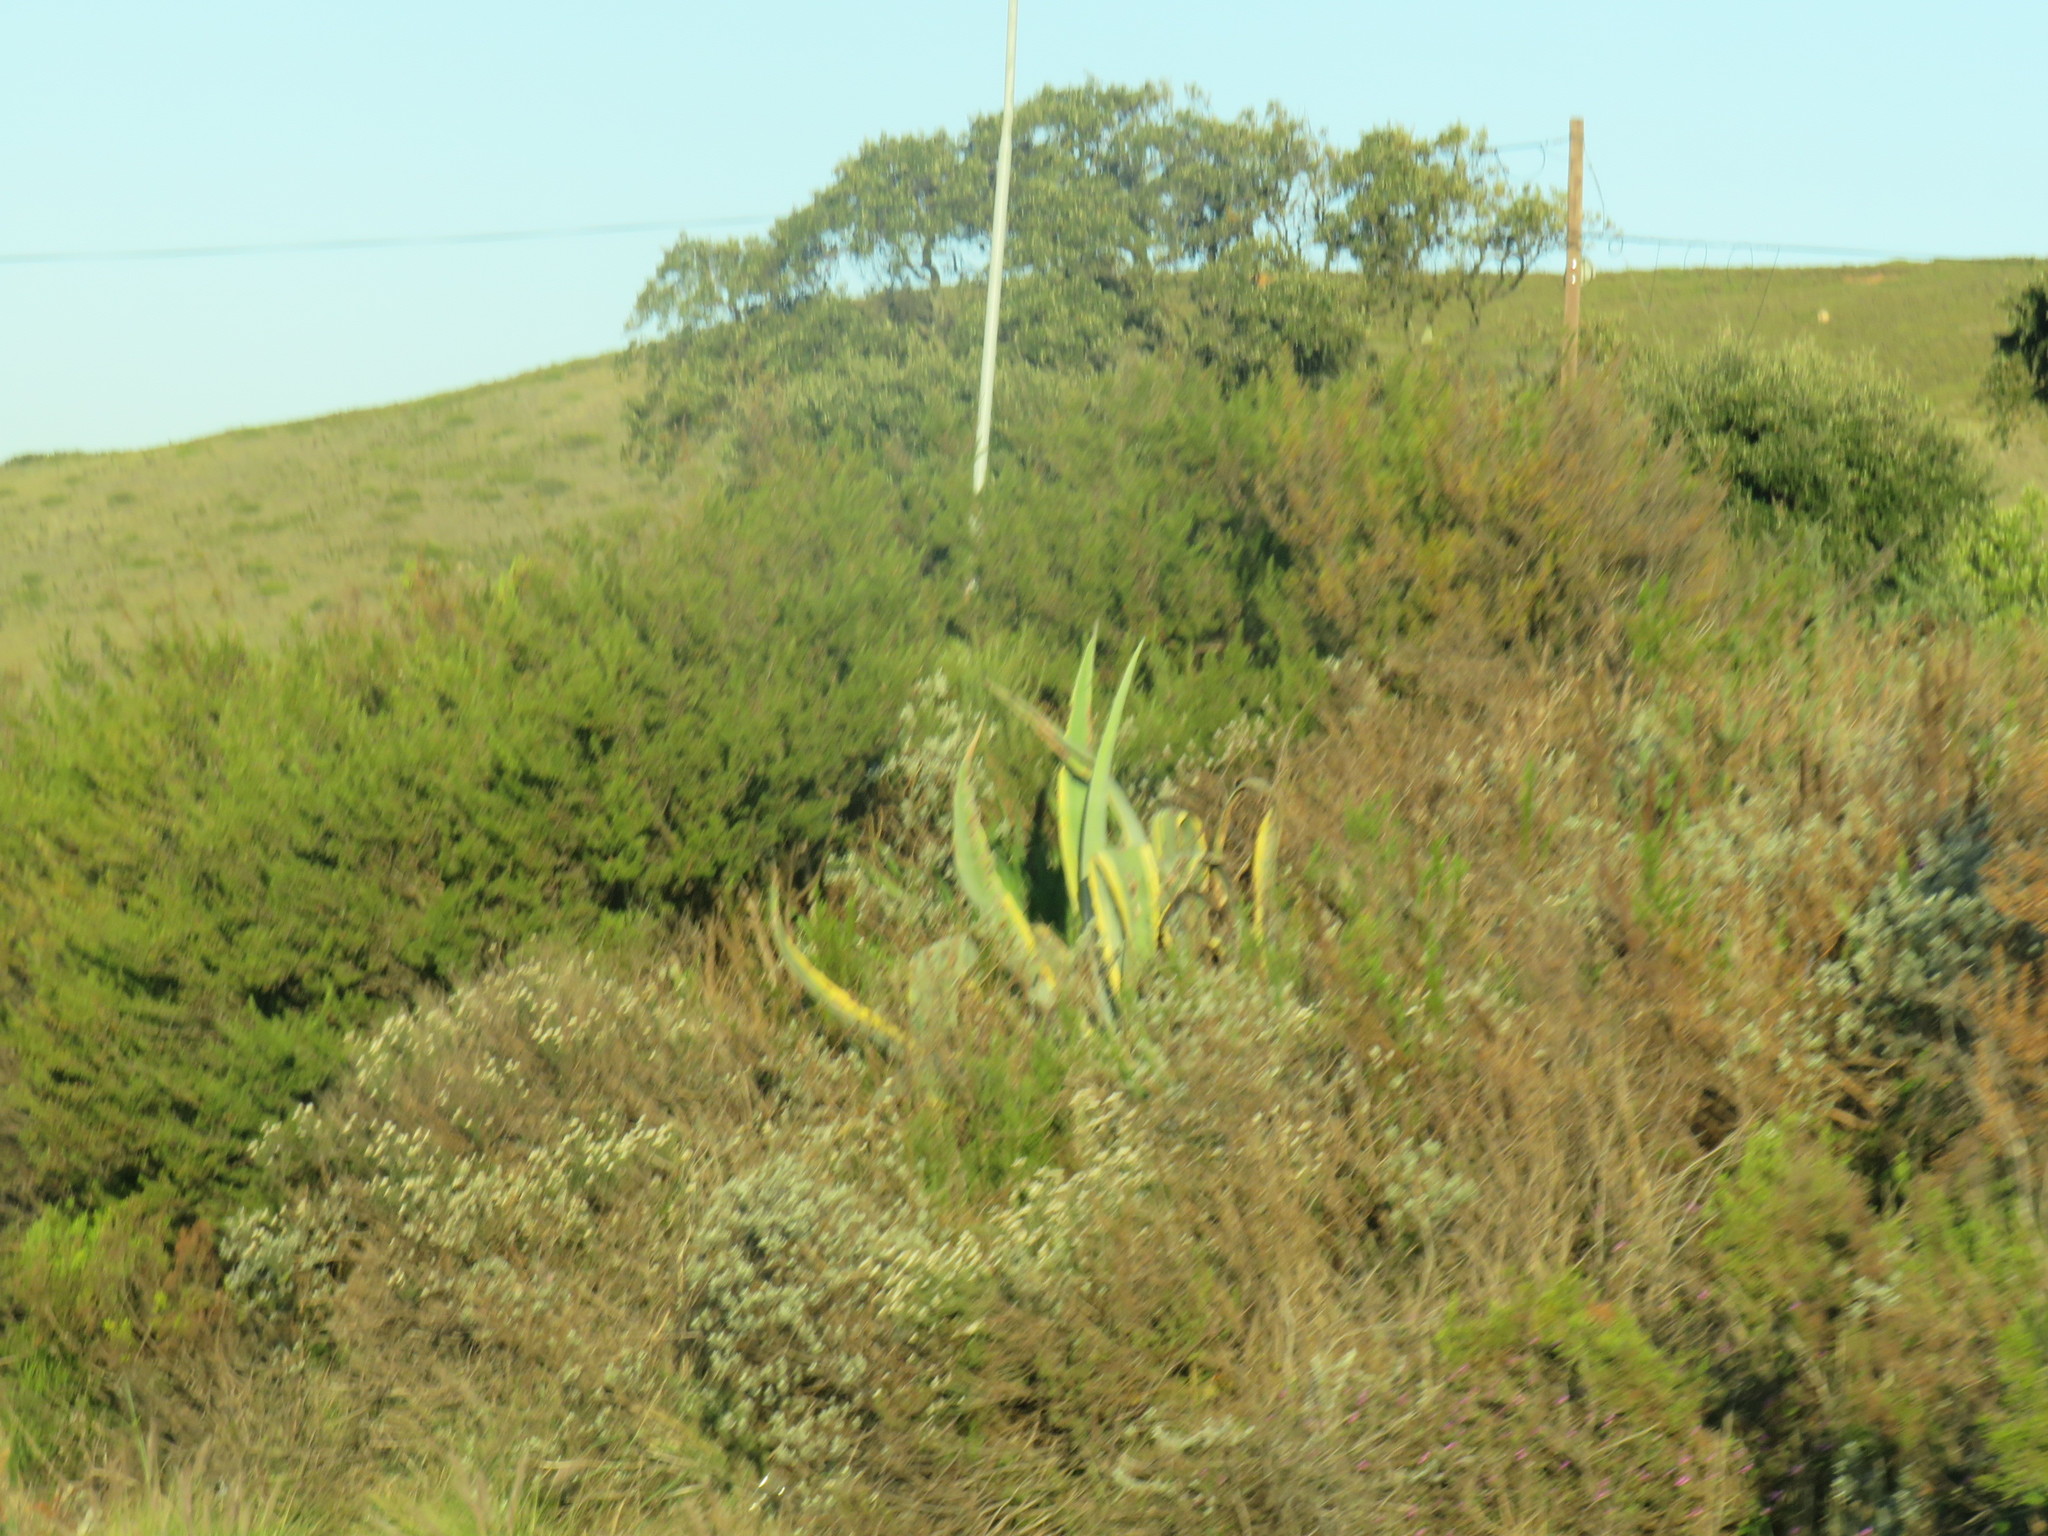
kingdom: Plantae
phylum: Tracheophyta
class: Liliopsida
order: Asparagales
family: Asparagaceae
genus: Agave
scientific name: Agave americana
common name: Centuryplant
